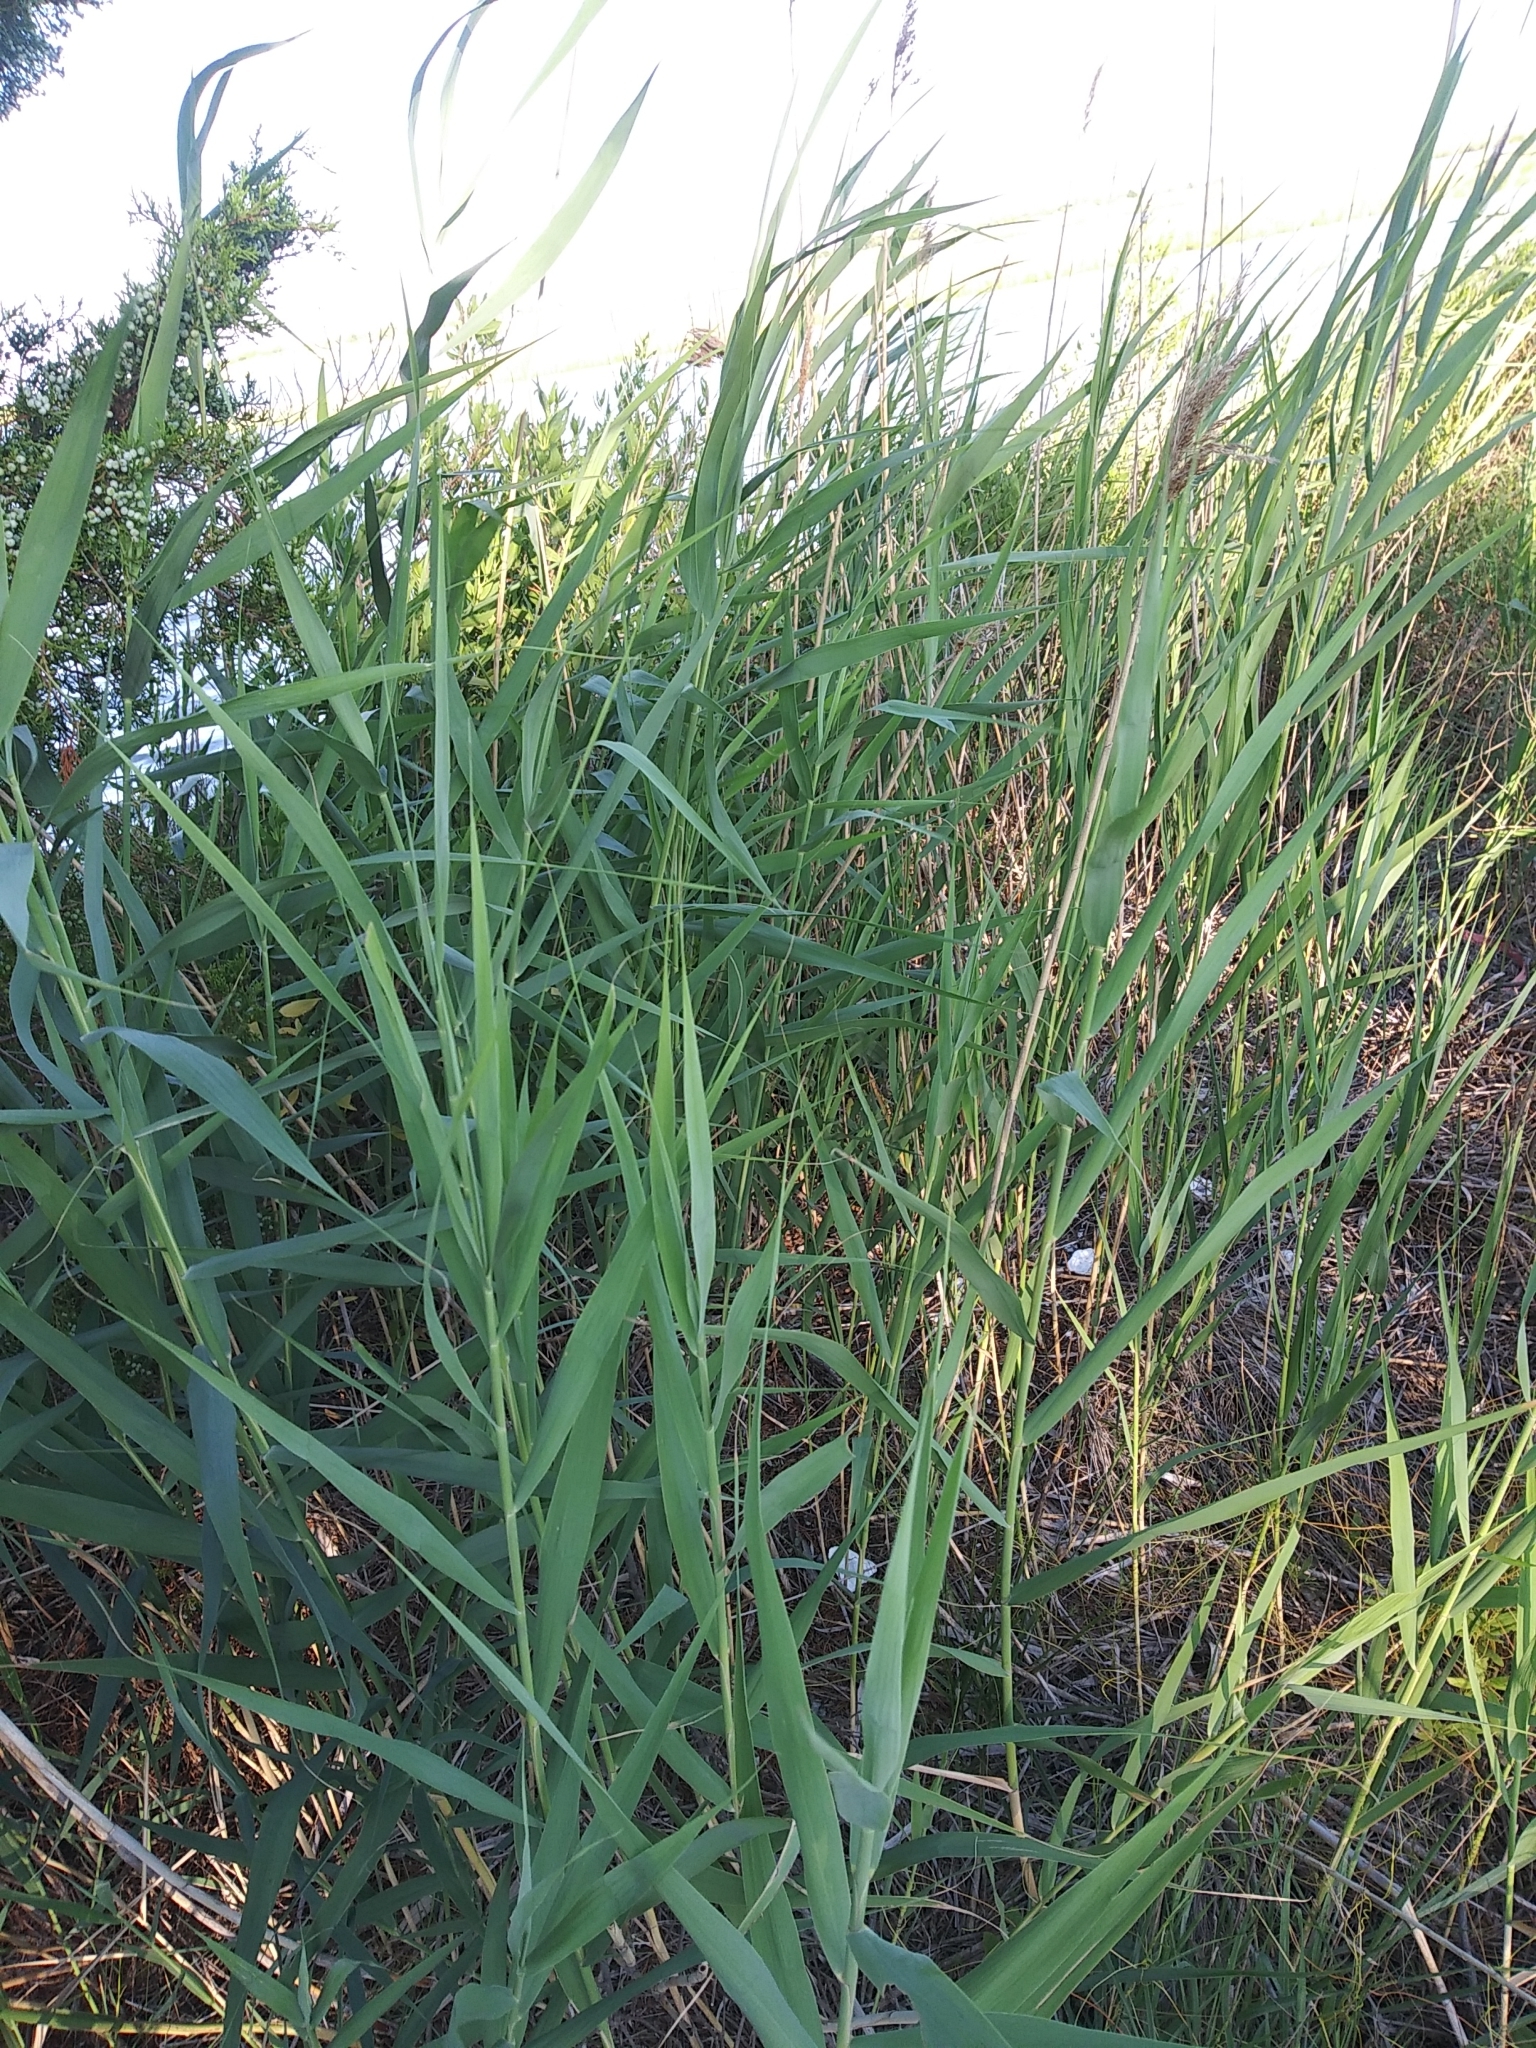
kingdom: Plantae
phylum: Tracheophyta
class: Liliopsida
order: Poales
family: Poaceae
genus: Phragmites
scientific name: Phragmites australis
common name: Common reed
